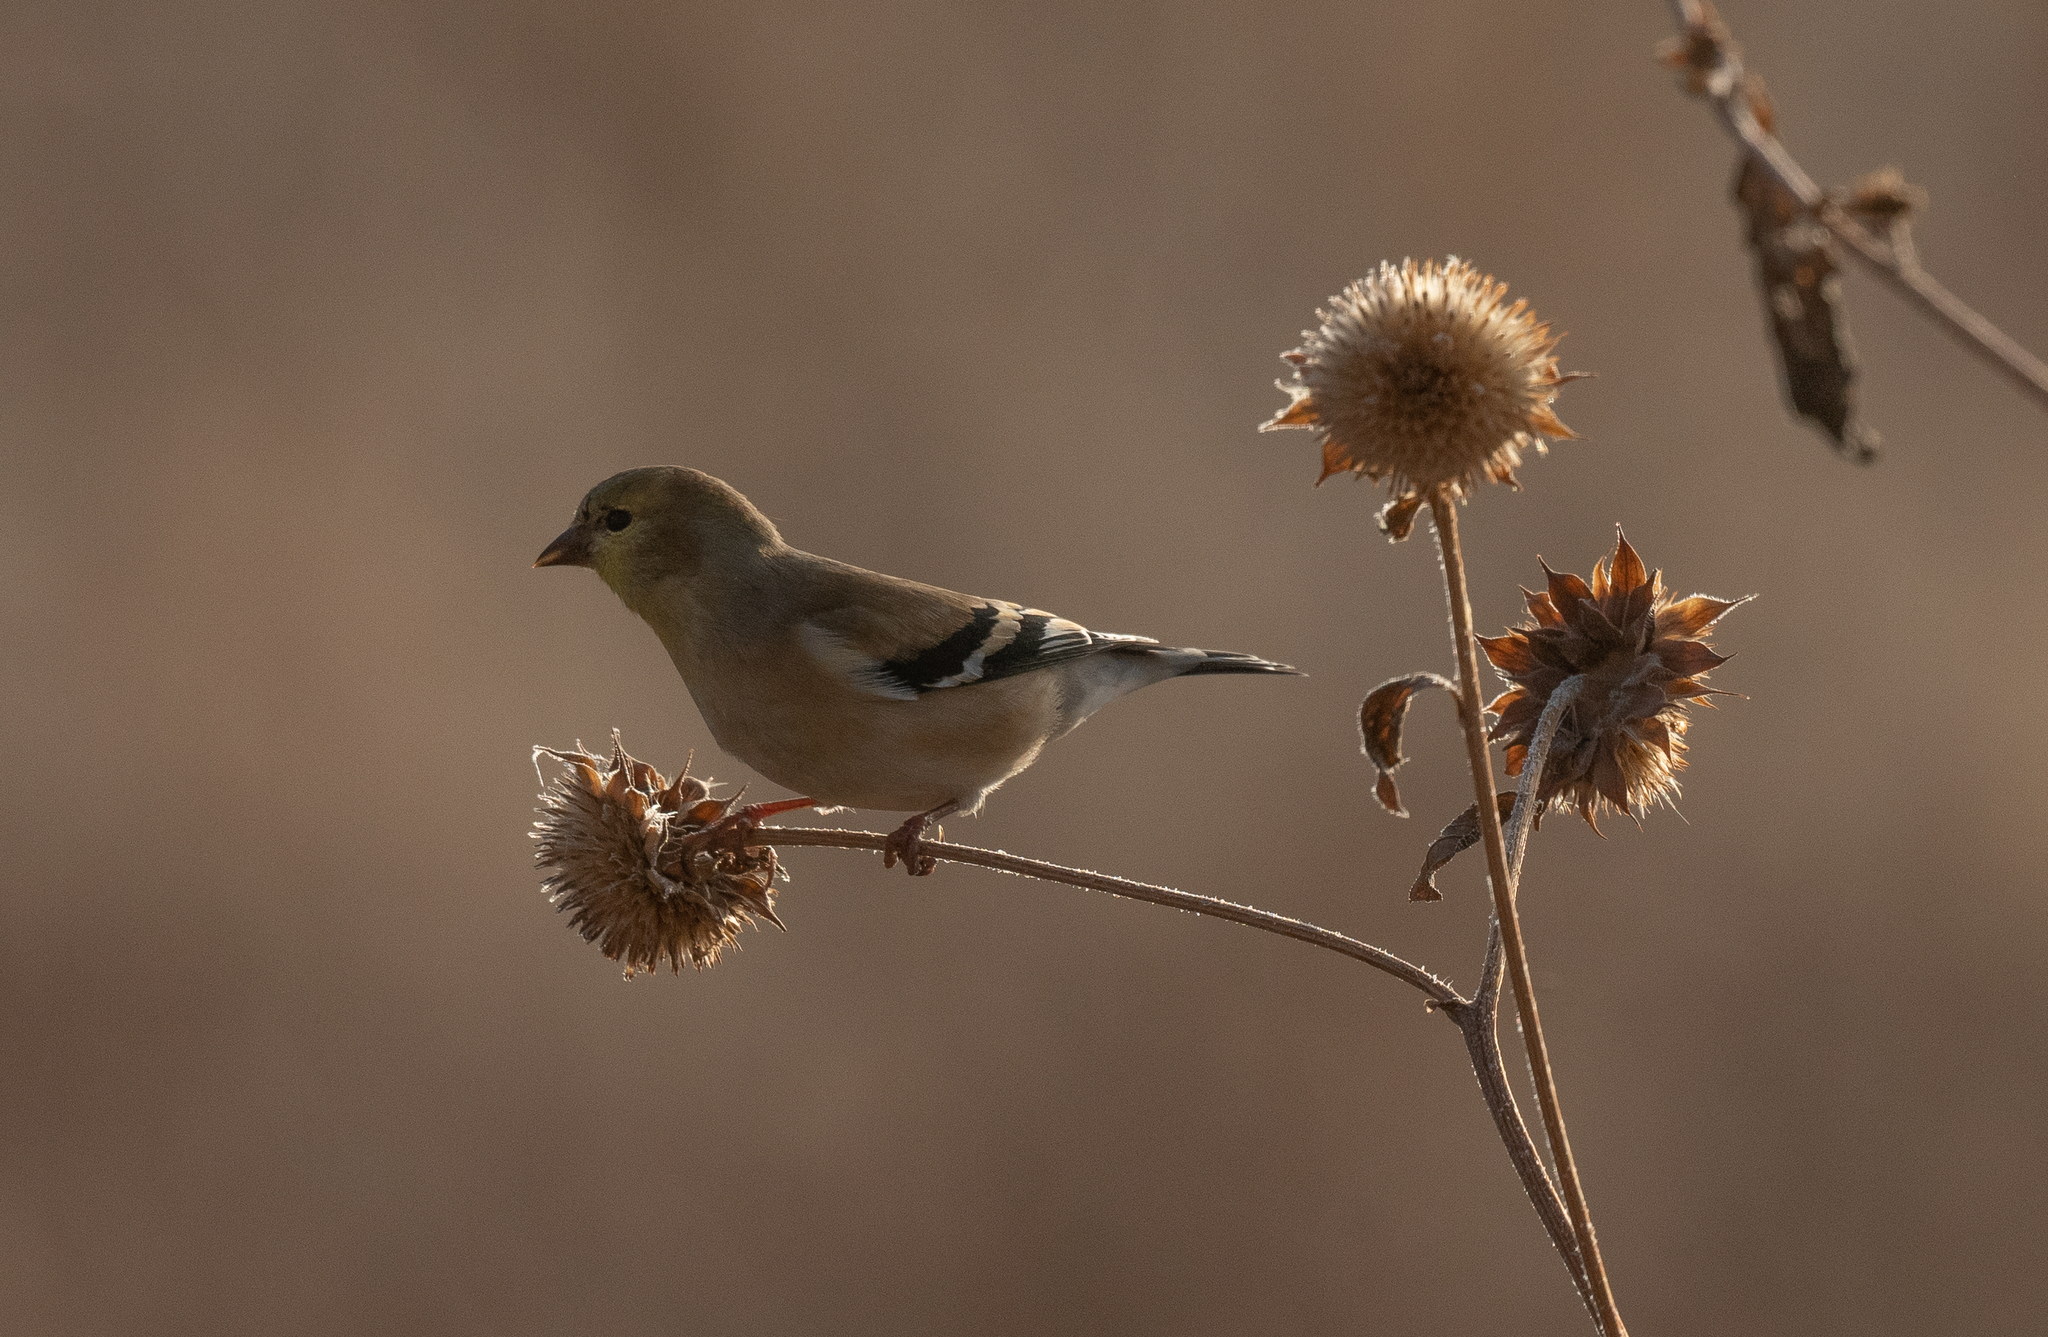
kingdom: Animalia
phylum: Chordata
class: Aves
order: Passeriformes
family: Fringillidae
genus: Spinus
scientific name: Spinus tristis
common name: American goldfinch
